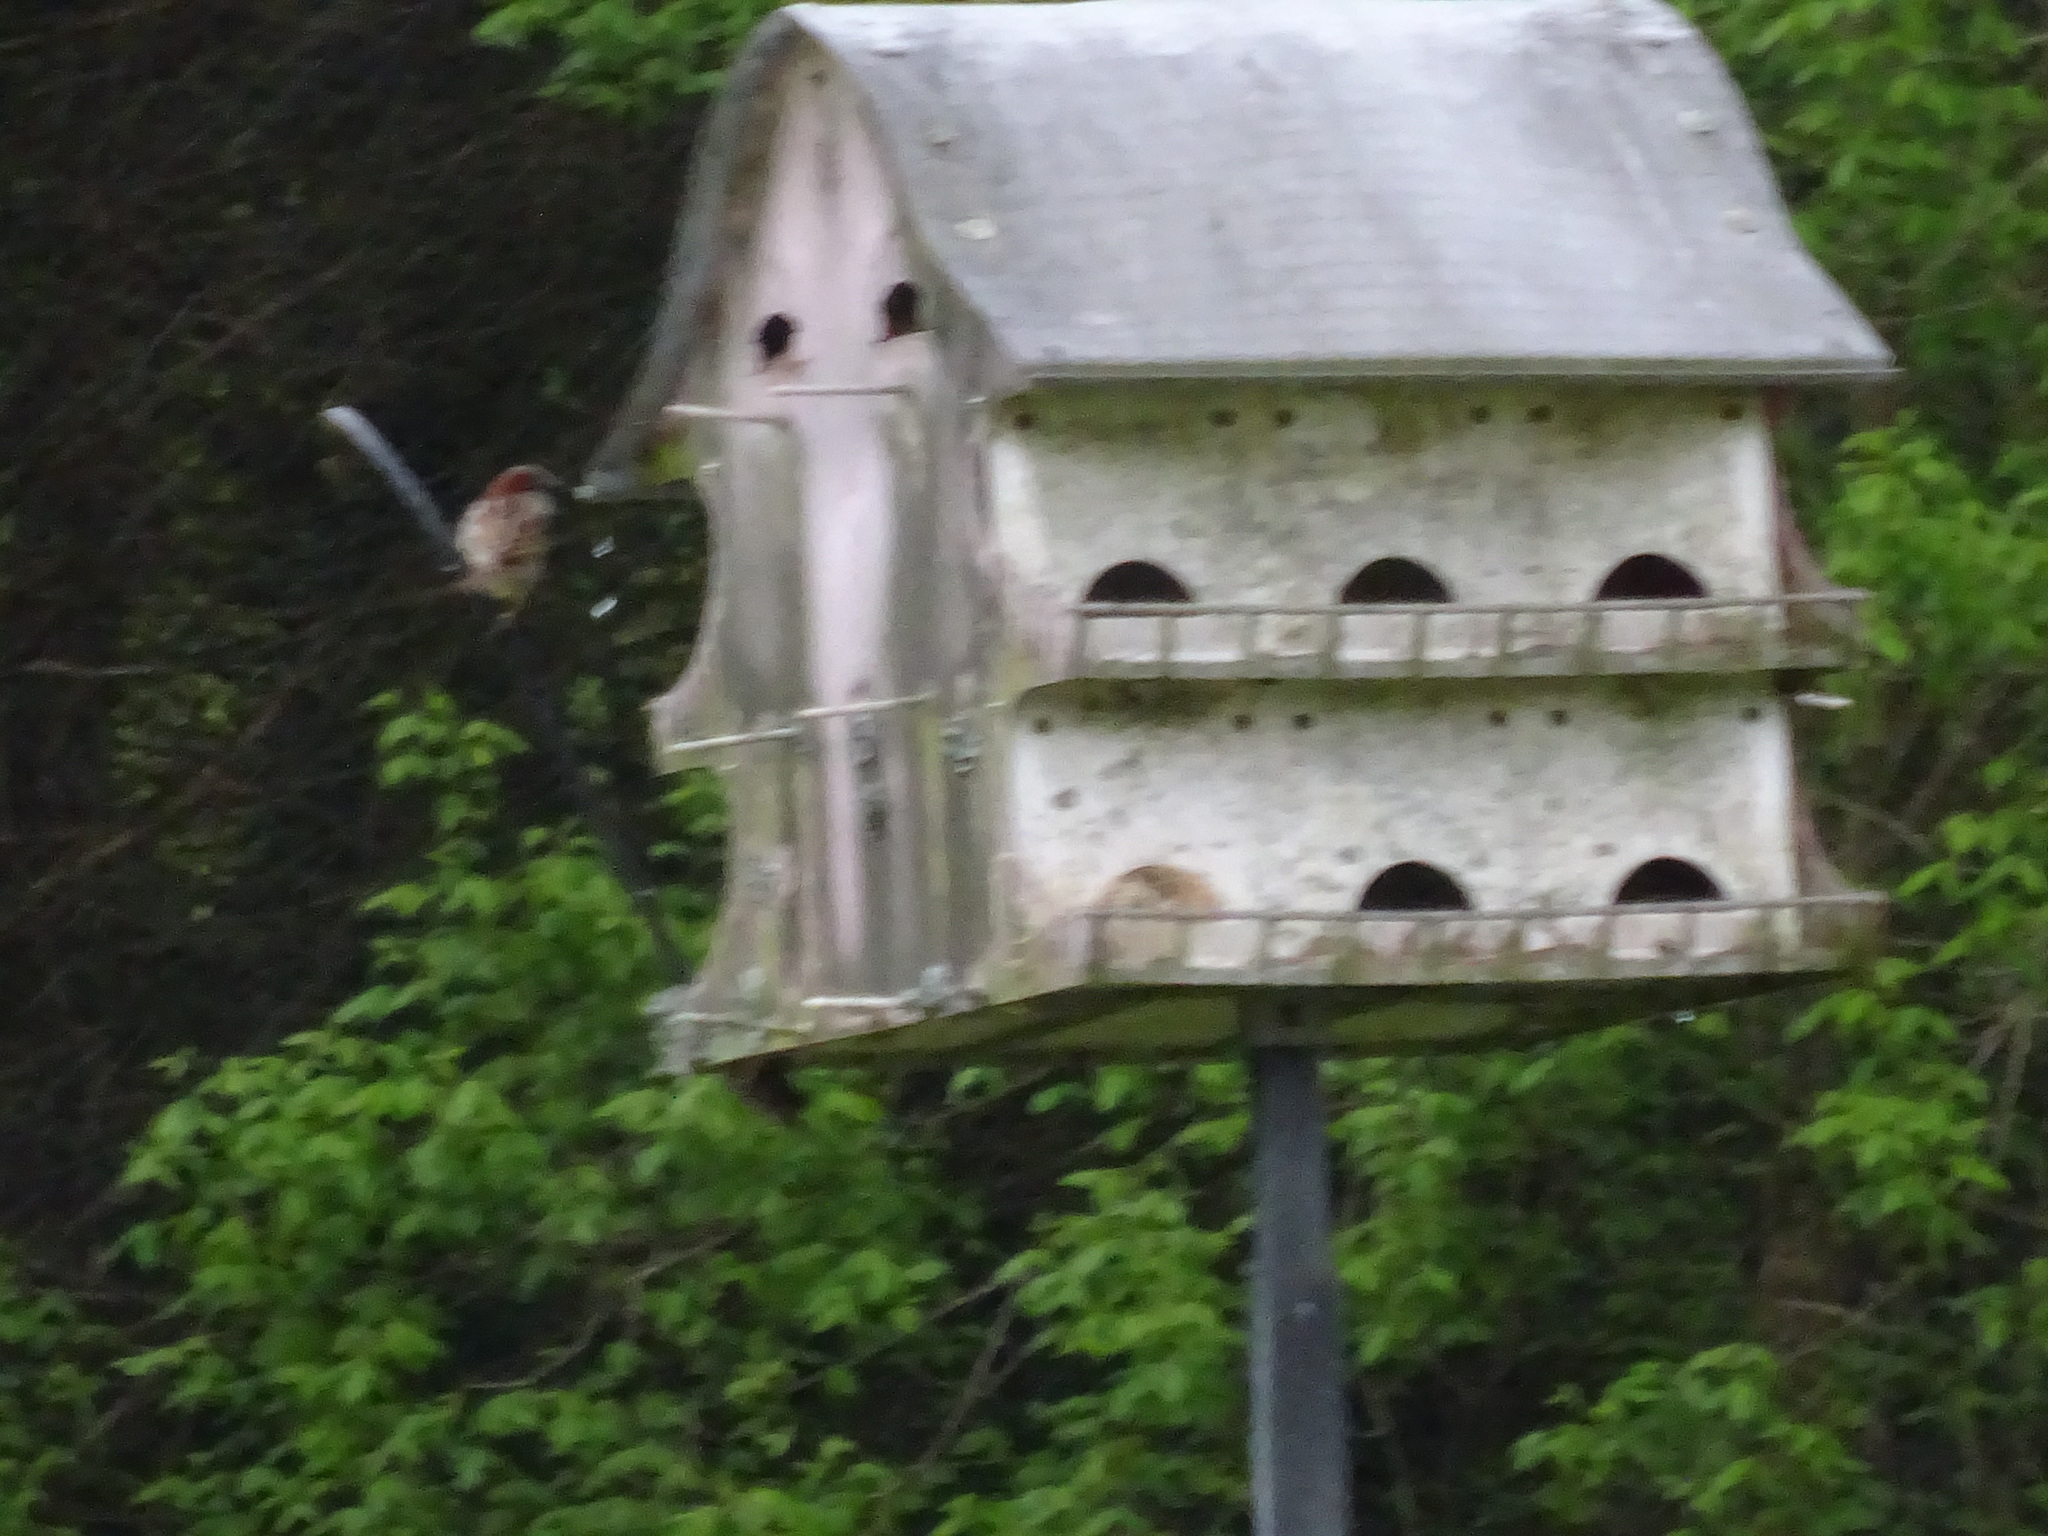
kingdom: Animalia
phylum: Chordata
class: Aves
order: Passeriformes
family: Passeridae
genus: Passer
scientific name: Passer domesticus
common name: House sparrow
